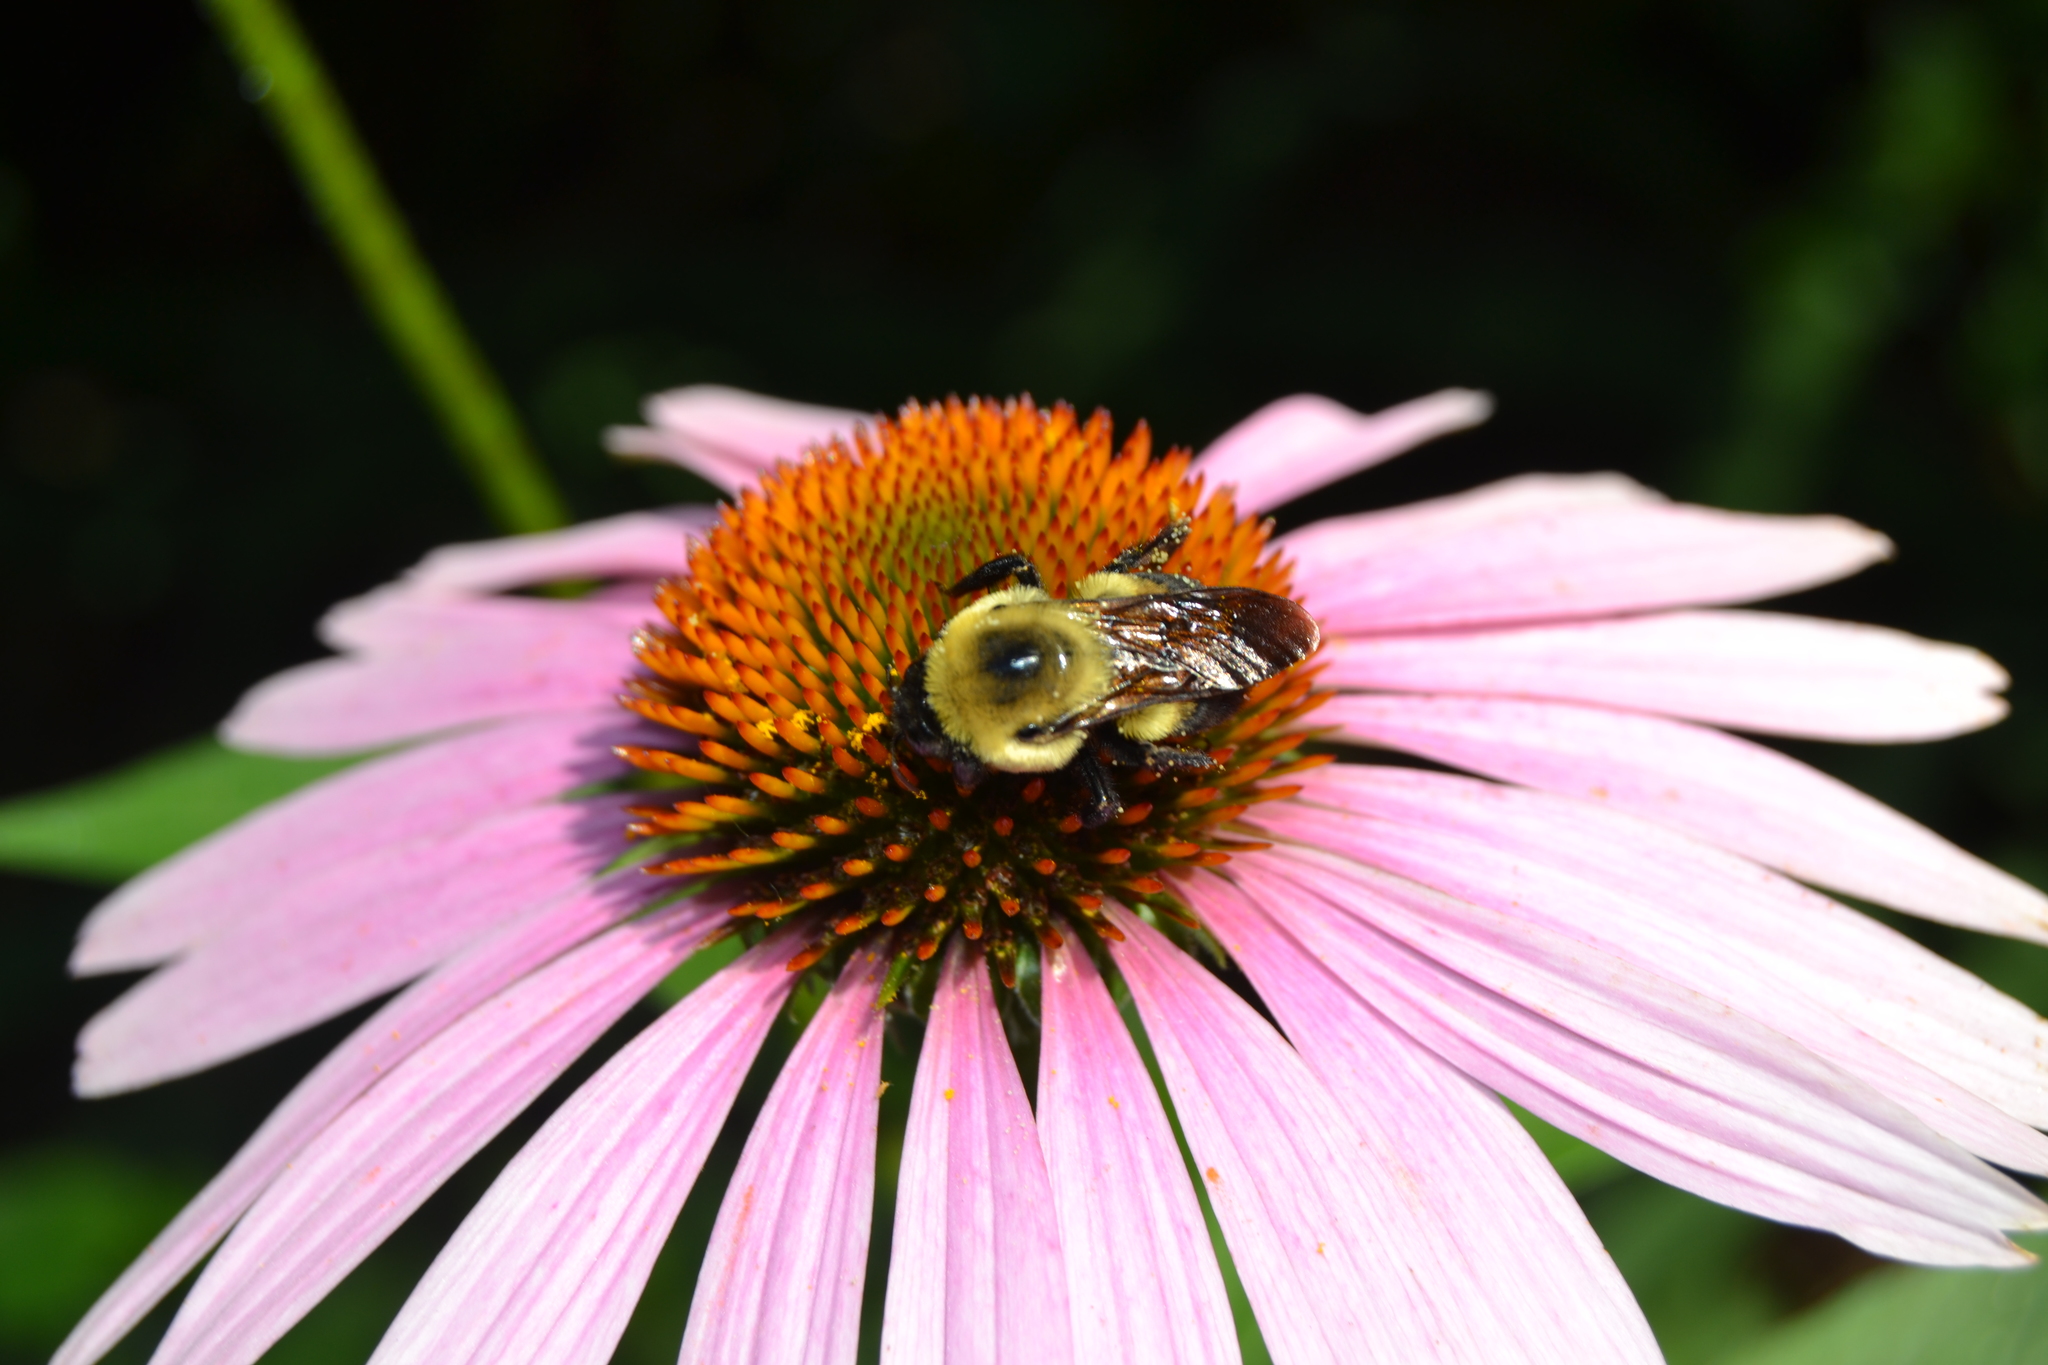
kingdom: Animalia
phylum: Arthropoda
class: Insecta
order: Hymenoptera
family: Apidae
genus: Bombus
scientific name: Bombus griseocollis
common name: Brown-belted bumble bee
